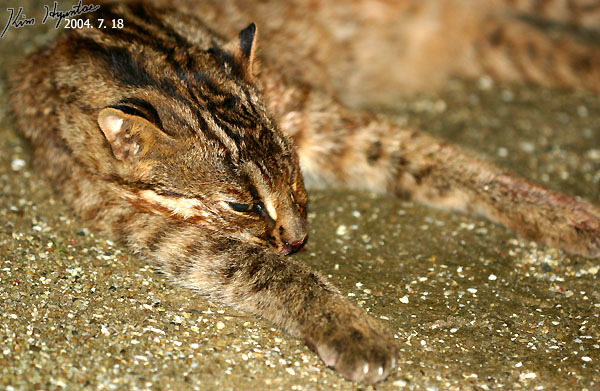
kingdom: Animalia
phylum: Chordata
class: Mammalia
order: Carnivora
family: Felidae
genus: Prionailurus
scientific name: Prionailurus bengalensis
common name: Leopard cat
